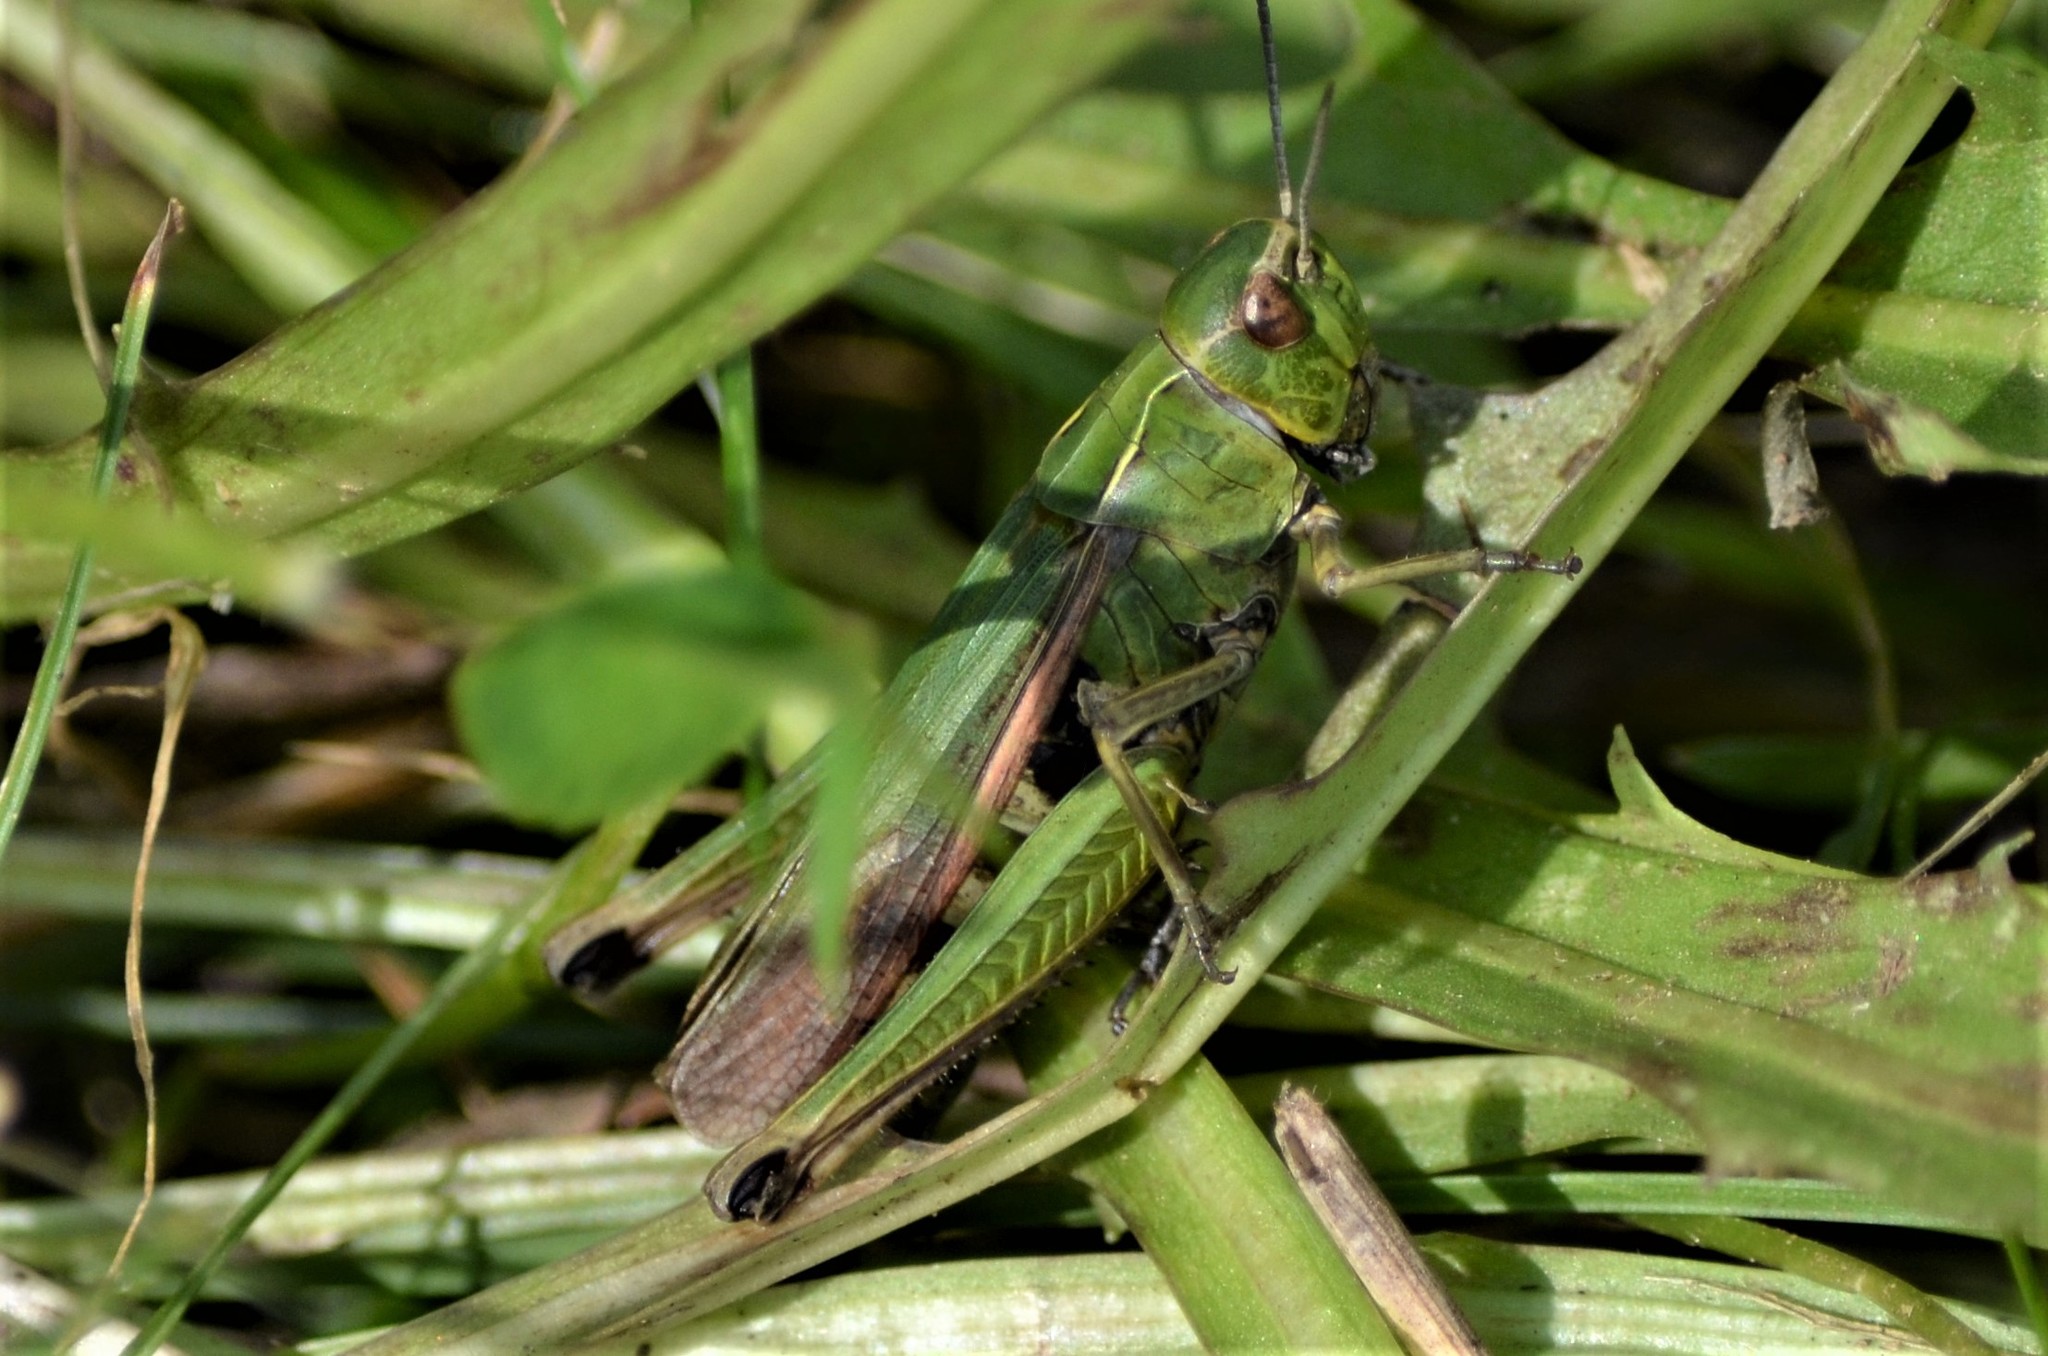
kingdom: Animalia
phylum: Arthropoda
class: Insecta
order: Orthoptera
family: Acrididae
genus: Omocestus
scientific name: Omocestus viridulus
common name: Common green grasshopper
